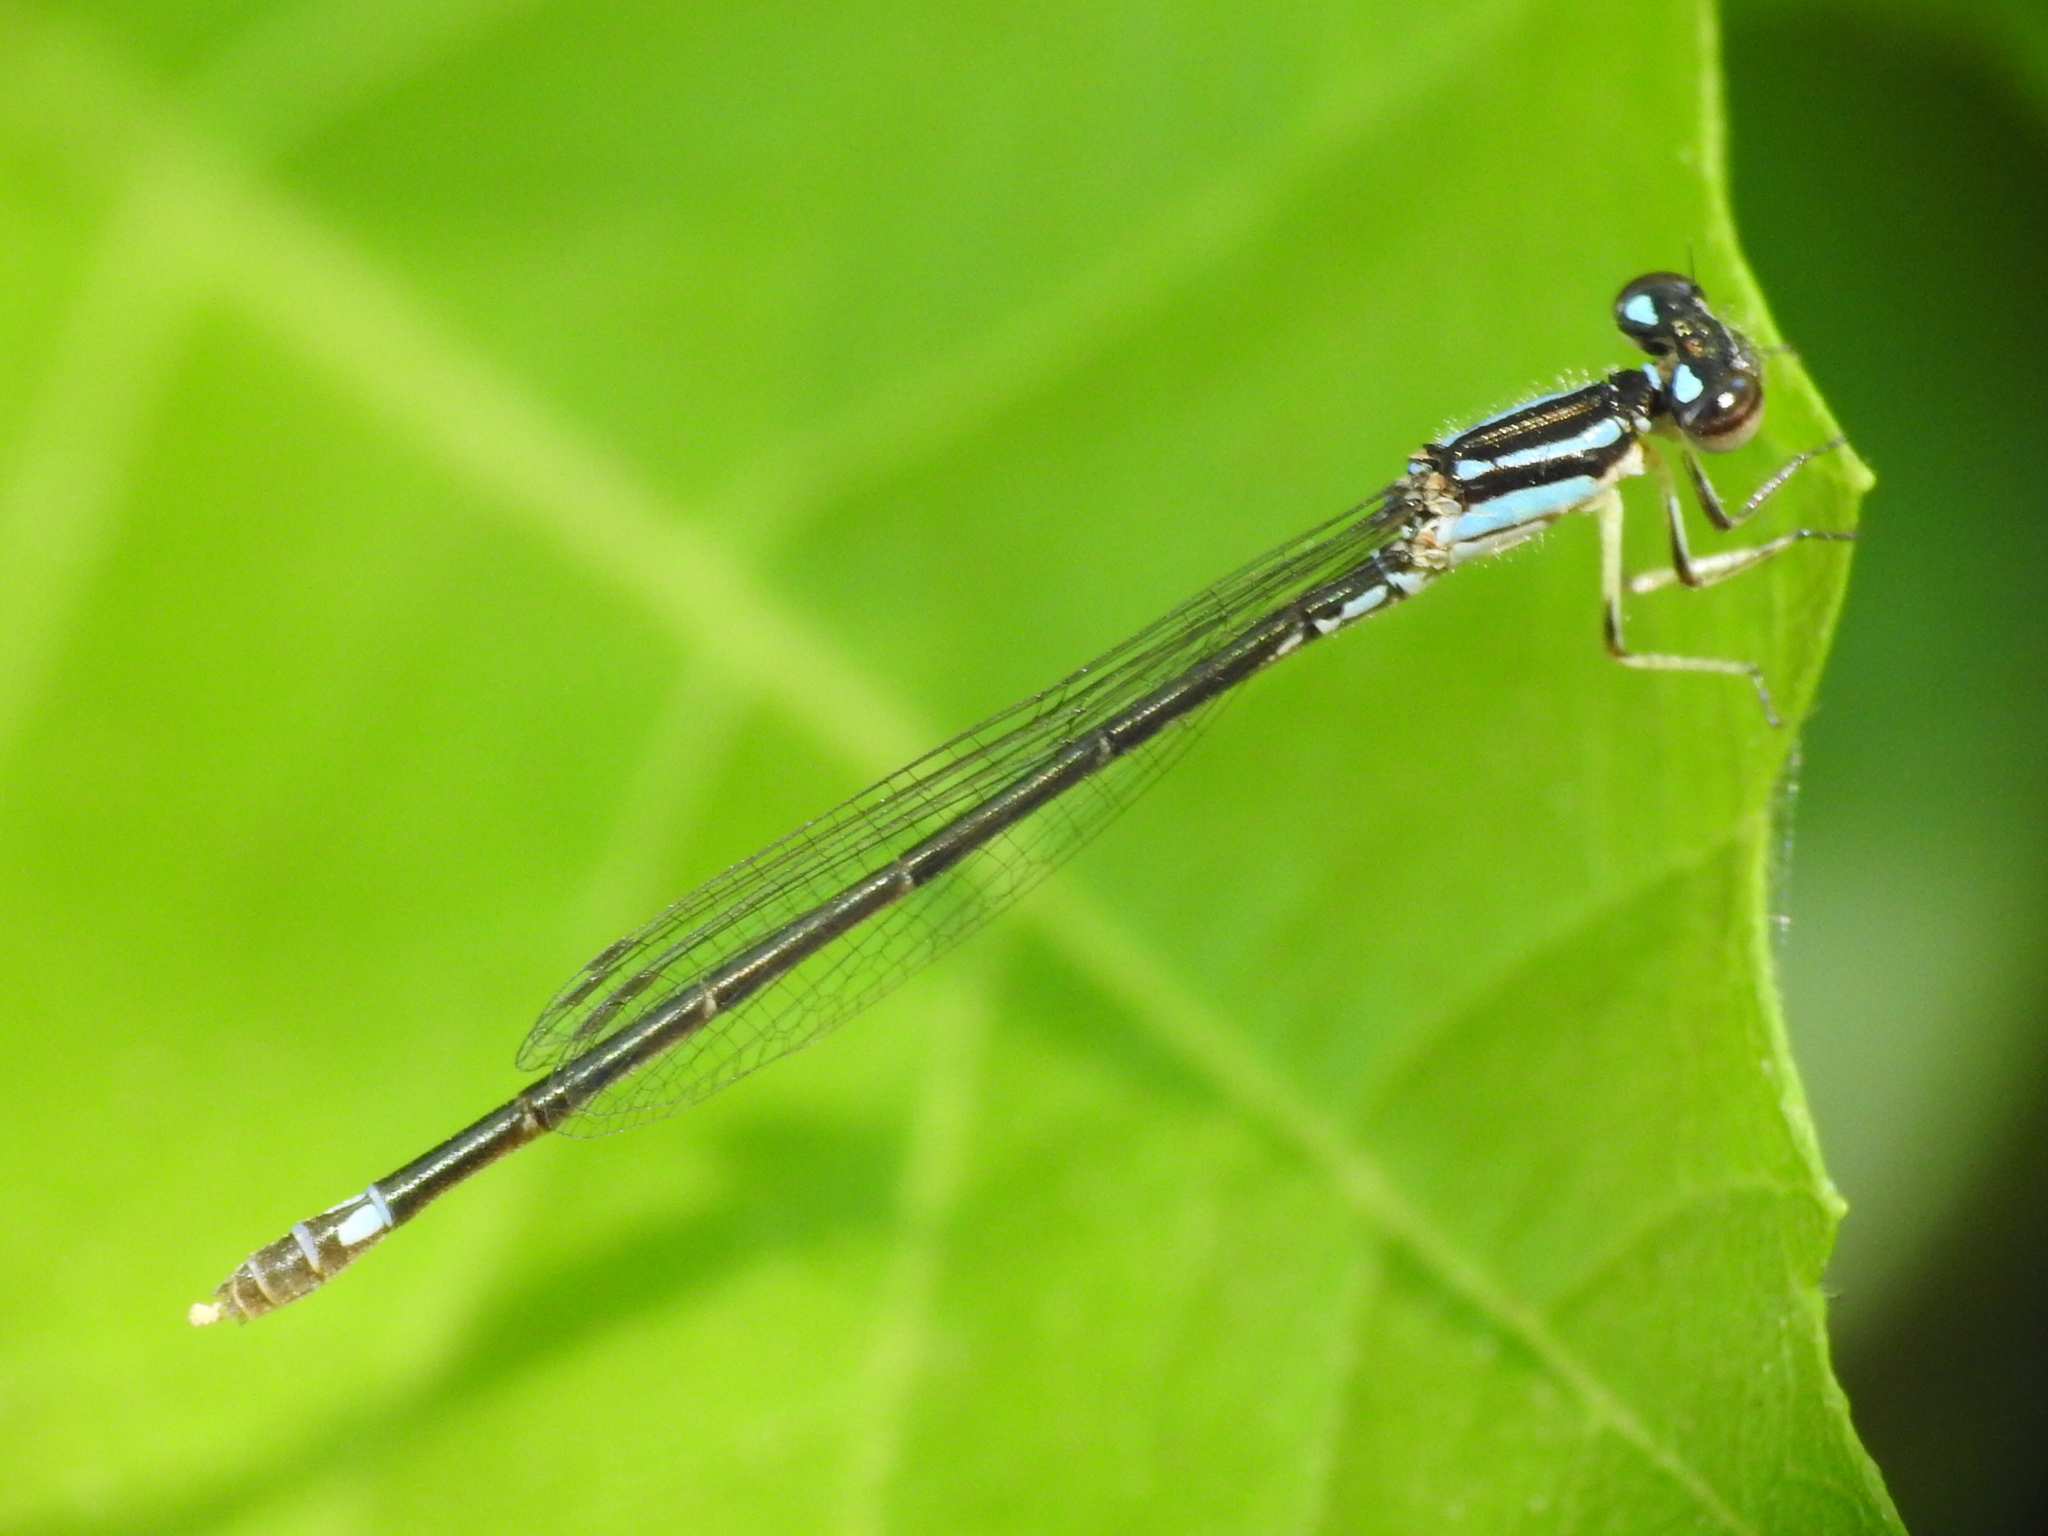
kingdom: Animalia
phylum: Arthropoda
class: Insecta
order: Odonata
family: Coenagrionidae
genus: Ischnura
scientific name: Ischnura posita
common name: Fragile forktail
